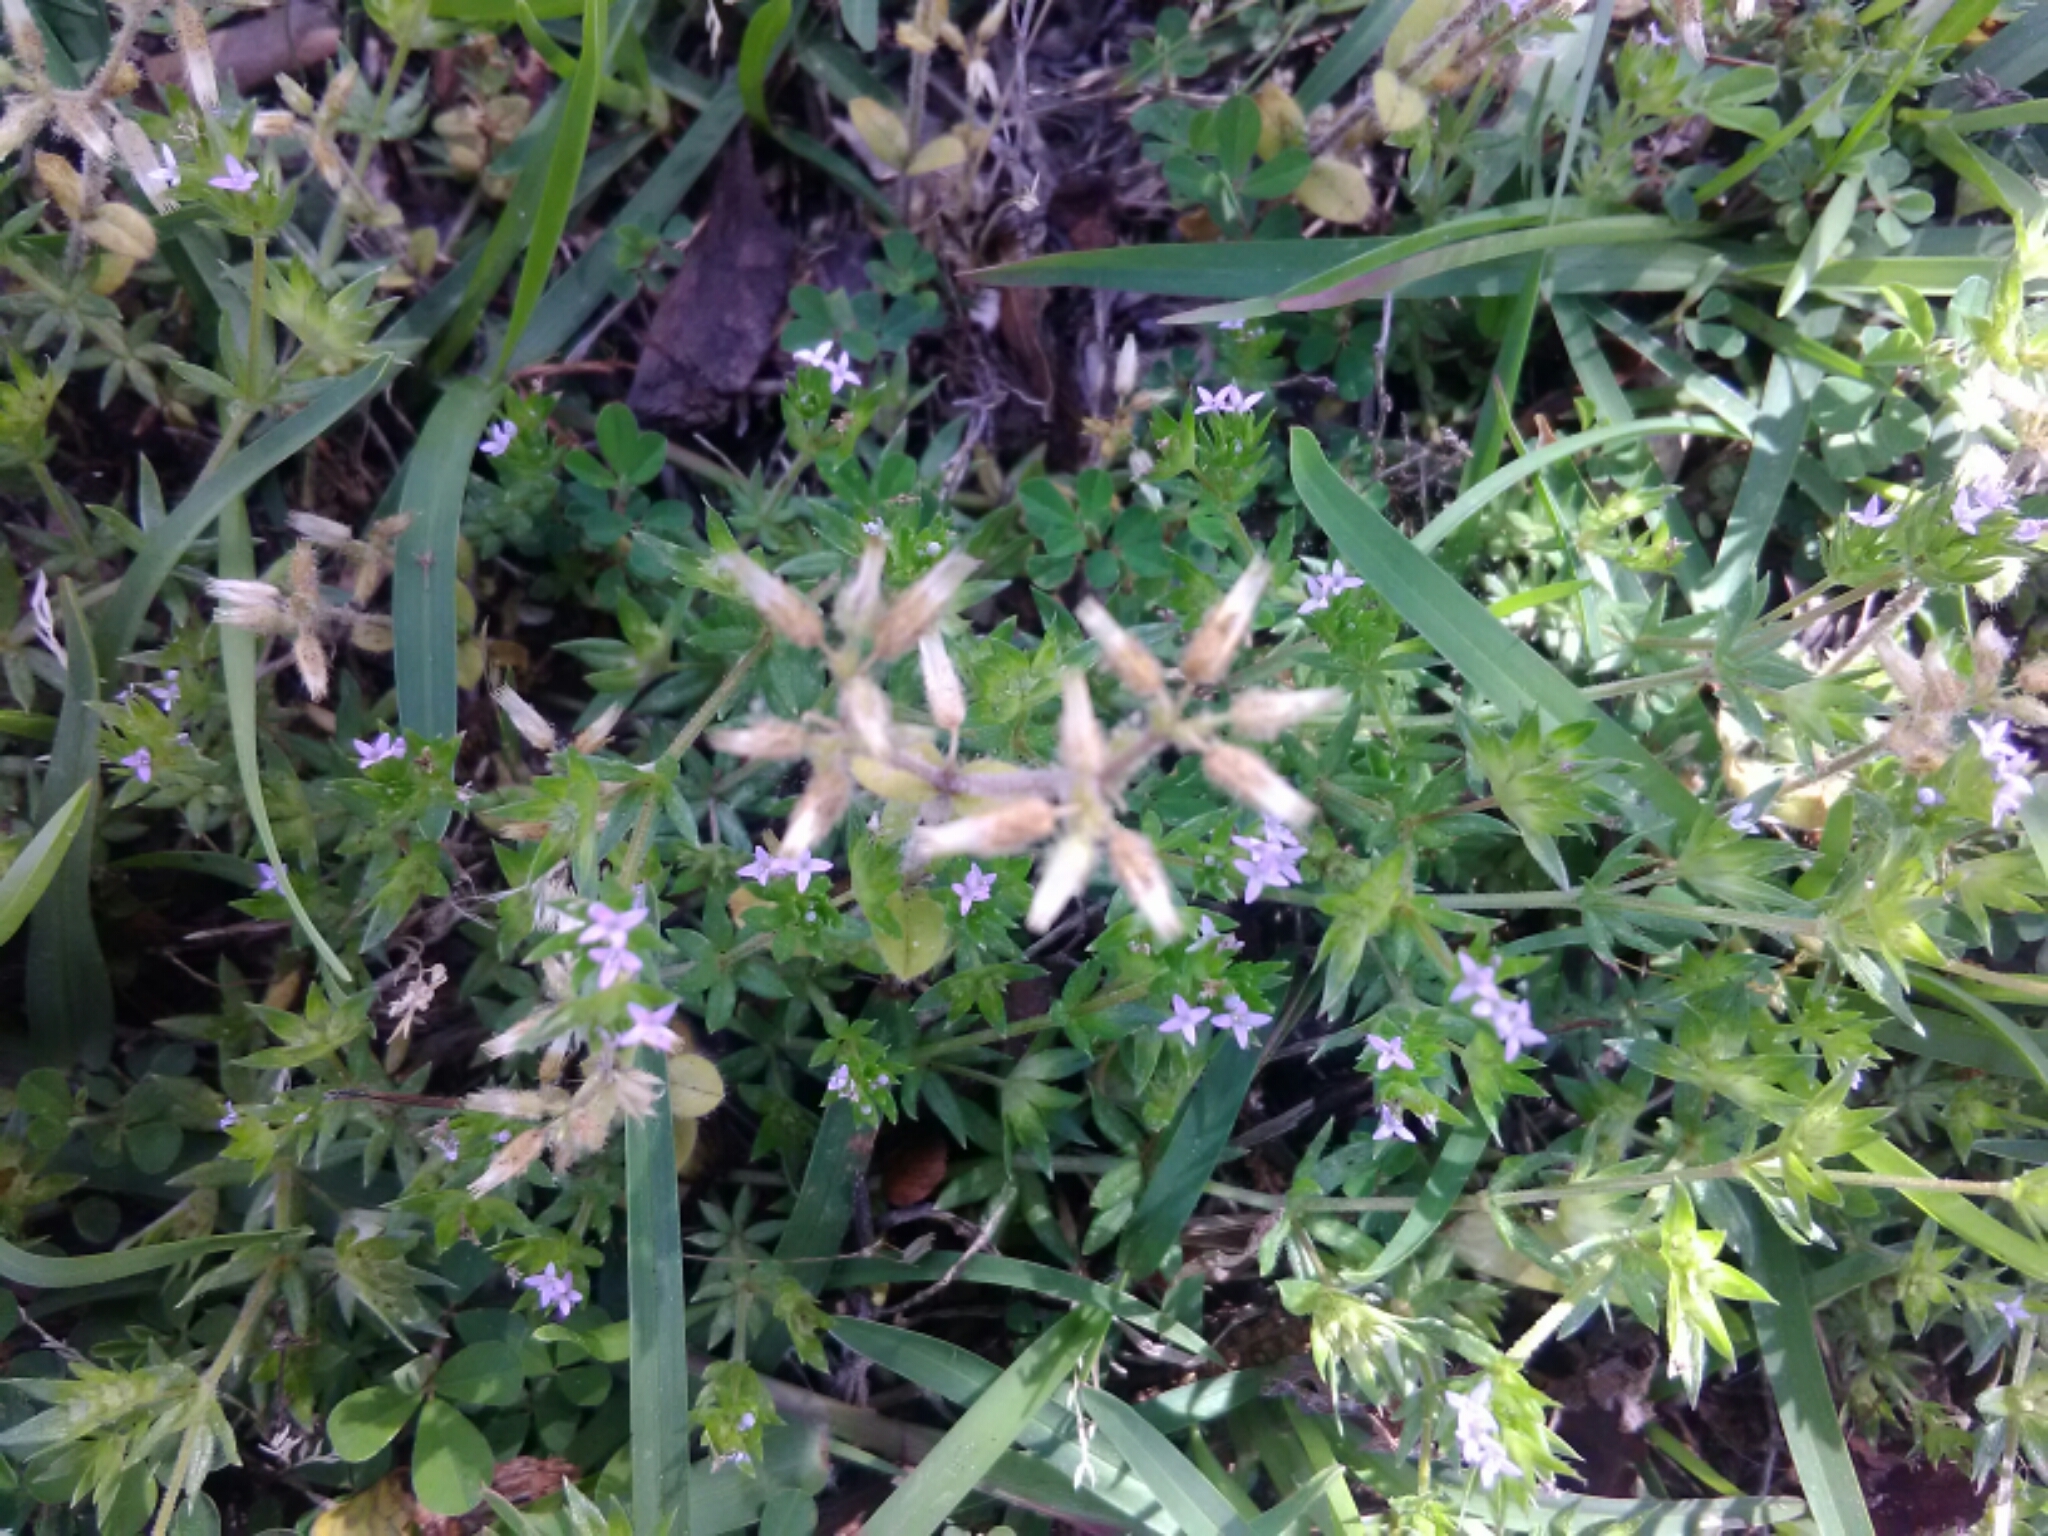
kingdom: Plantae
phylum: Tracheophyta
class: Magnoliopsida
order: Gentianales
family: Rubiaceae
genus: Sherardia
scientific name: Sherardia arvensis
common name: Field madder
